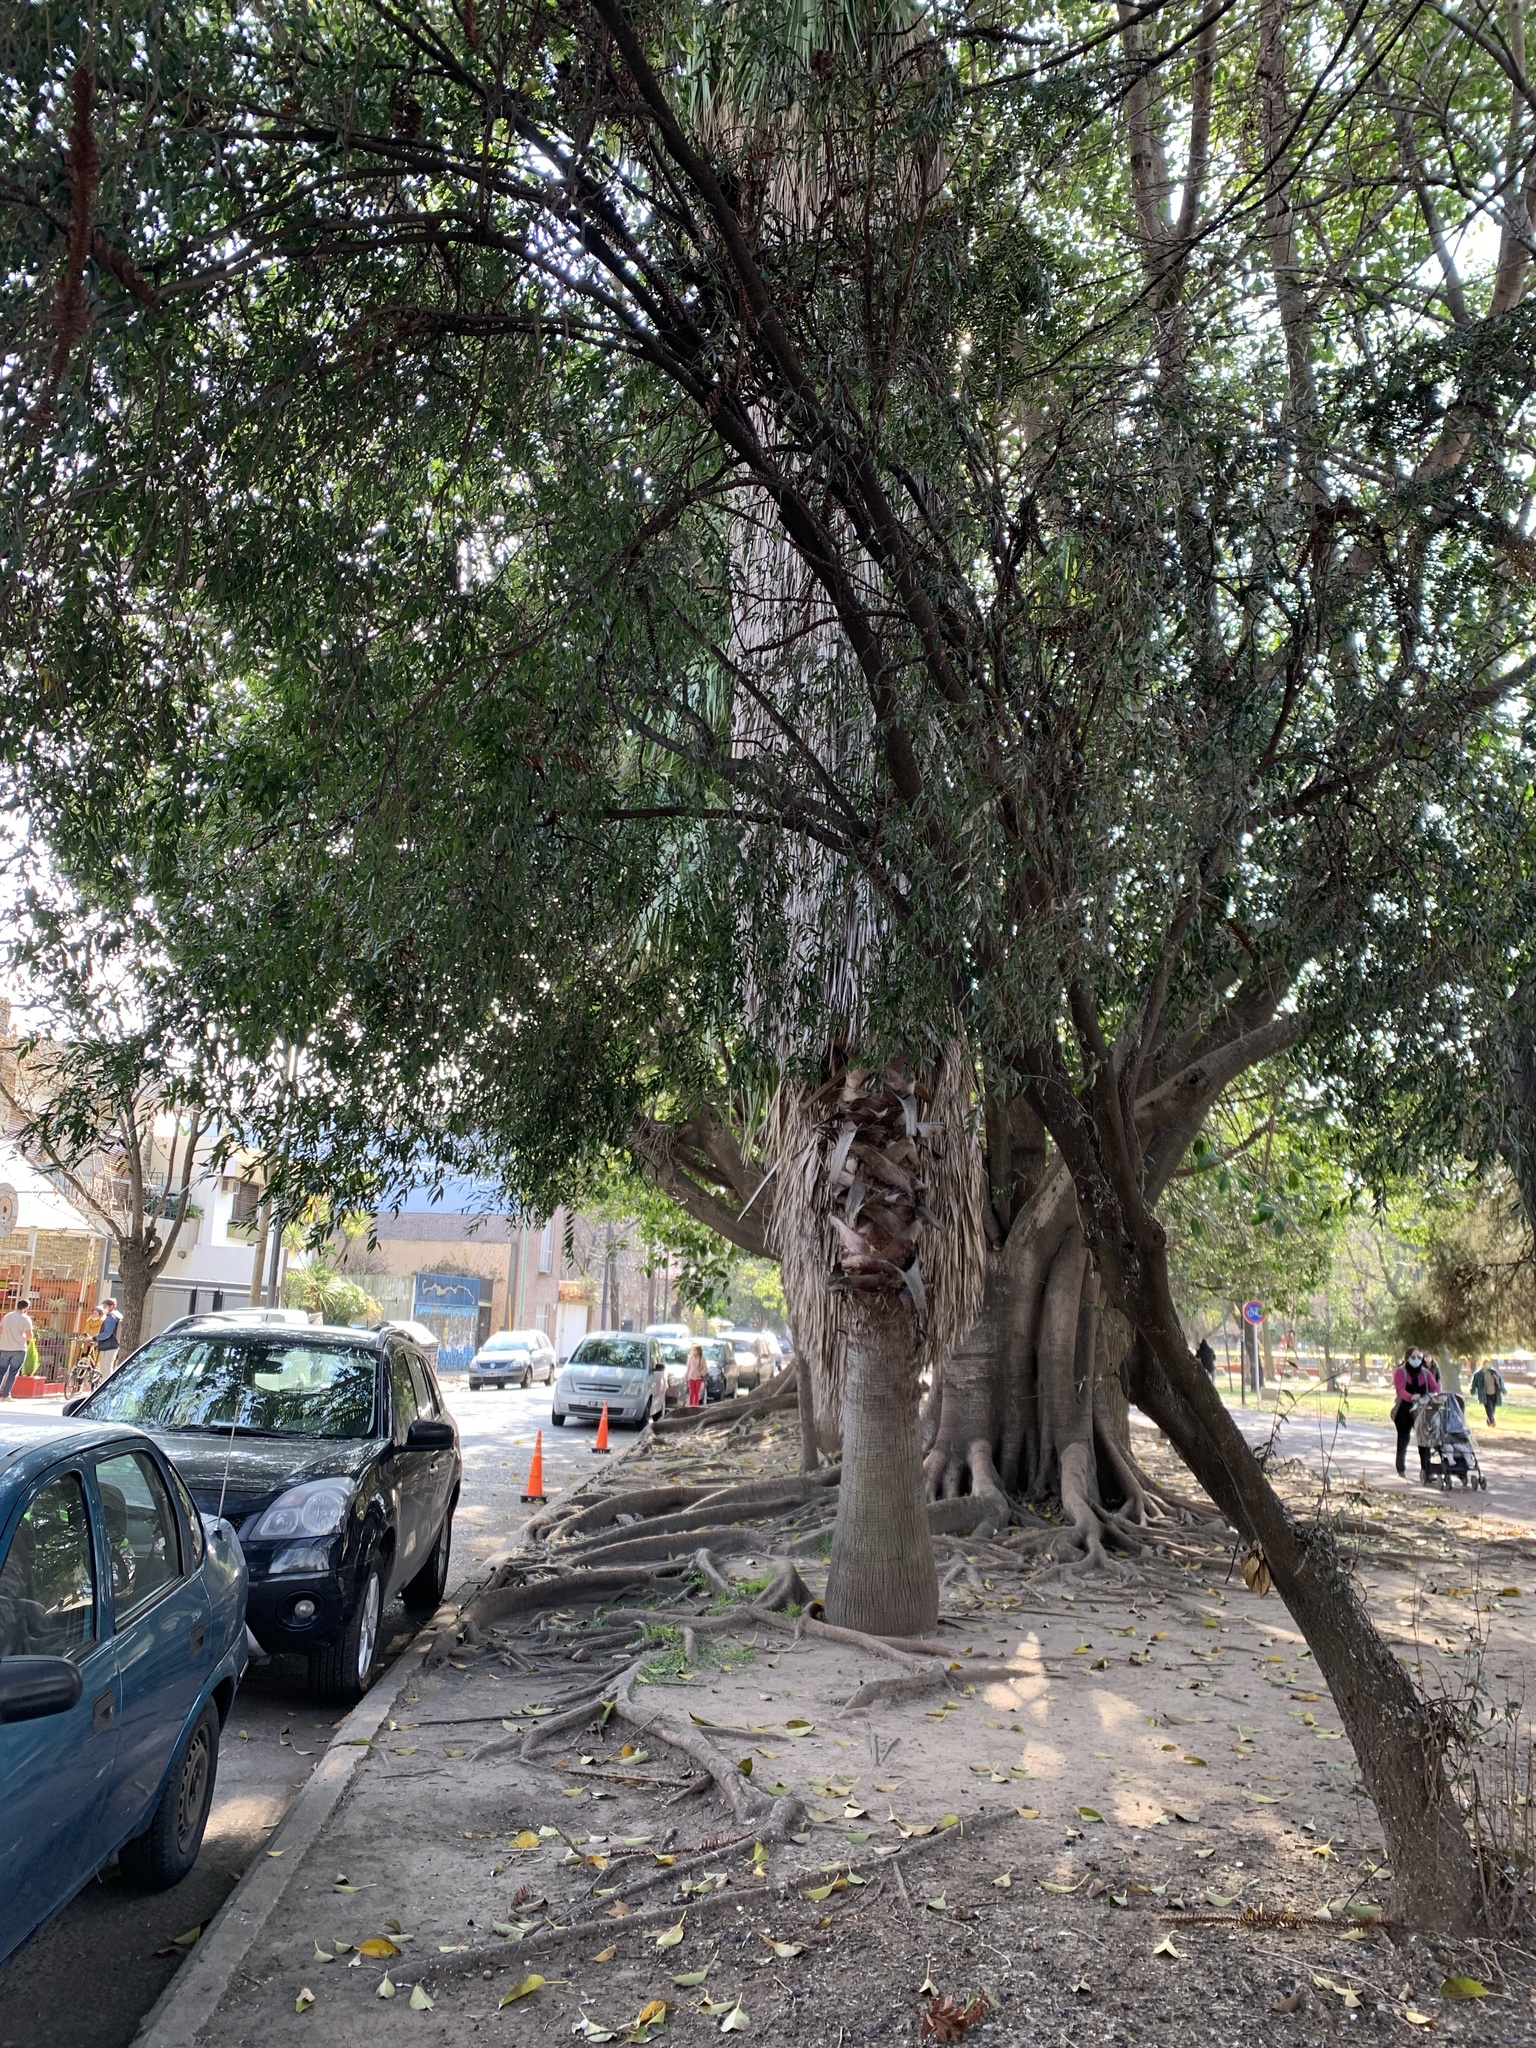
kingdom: Plantae
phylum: Tracheophyta
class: Magnoliopsida
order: Myrtales
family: Myrtaceae
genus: Blepharocalyx
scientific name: Blepharocalyx salicifolius
